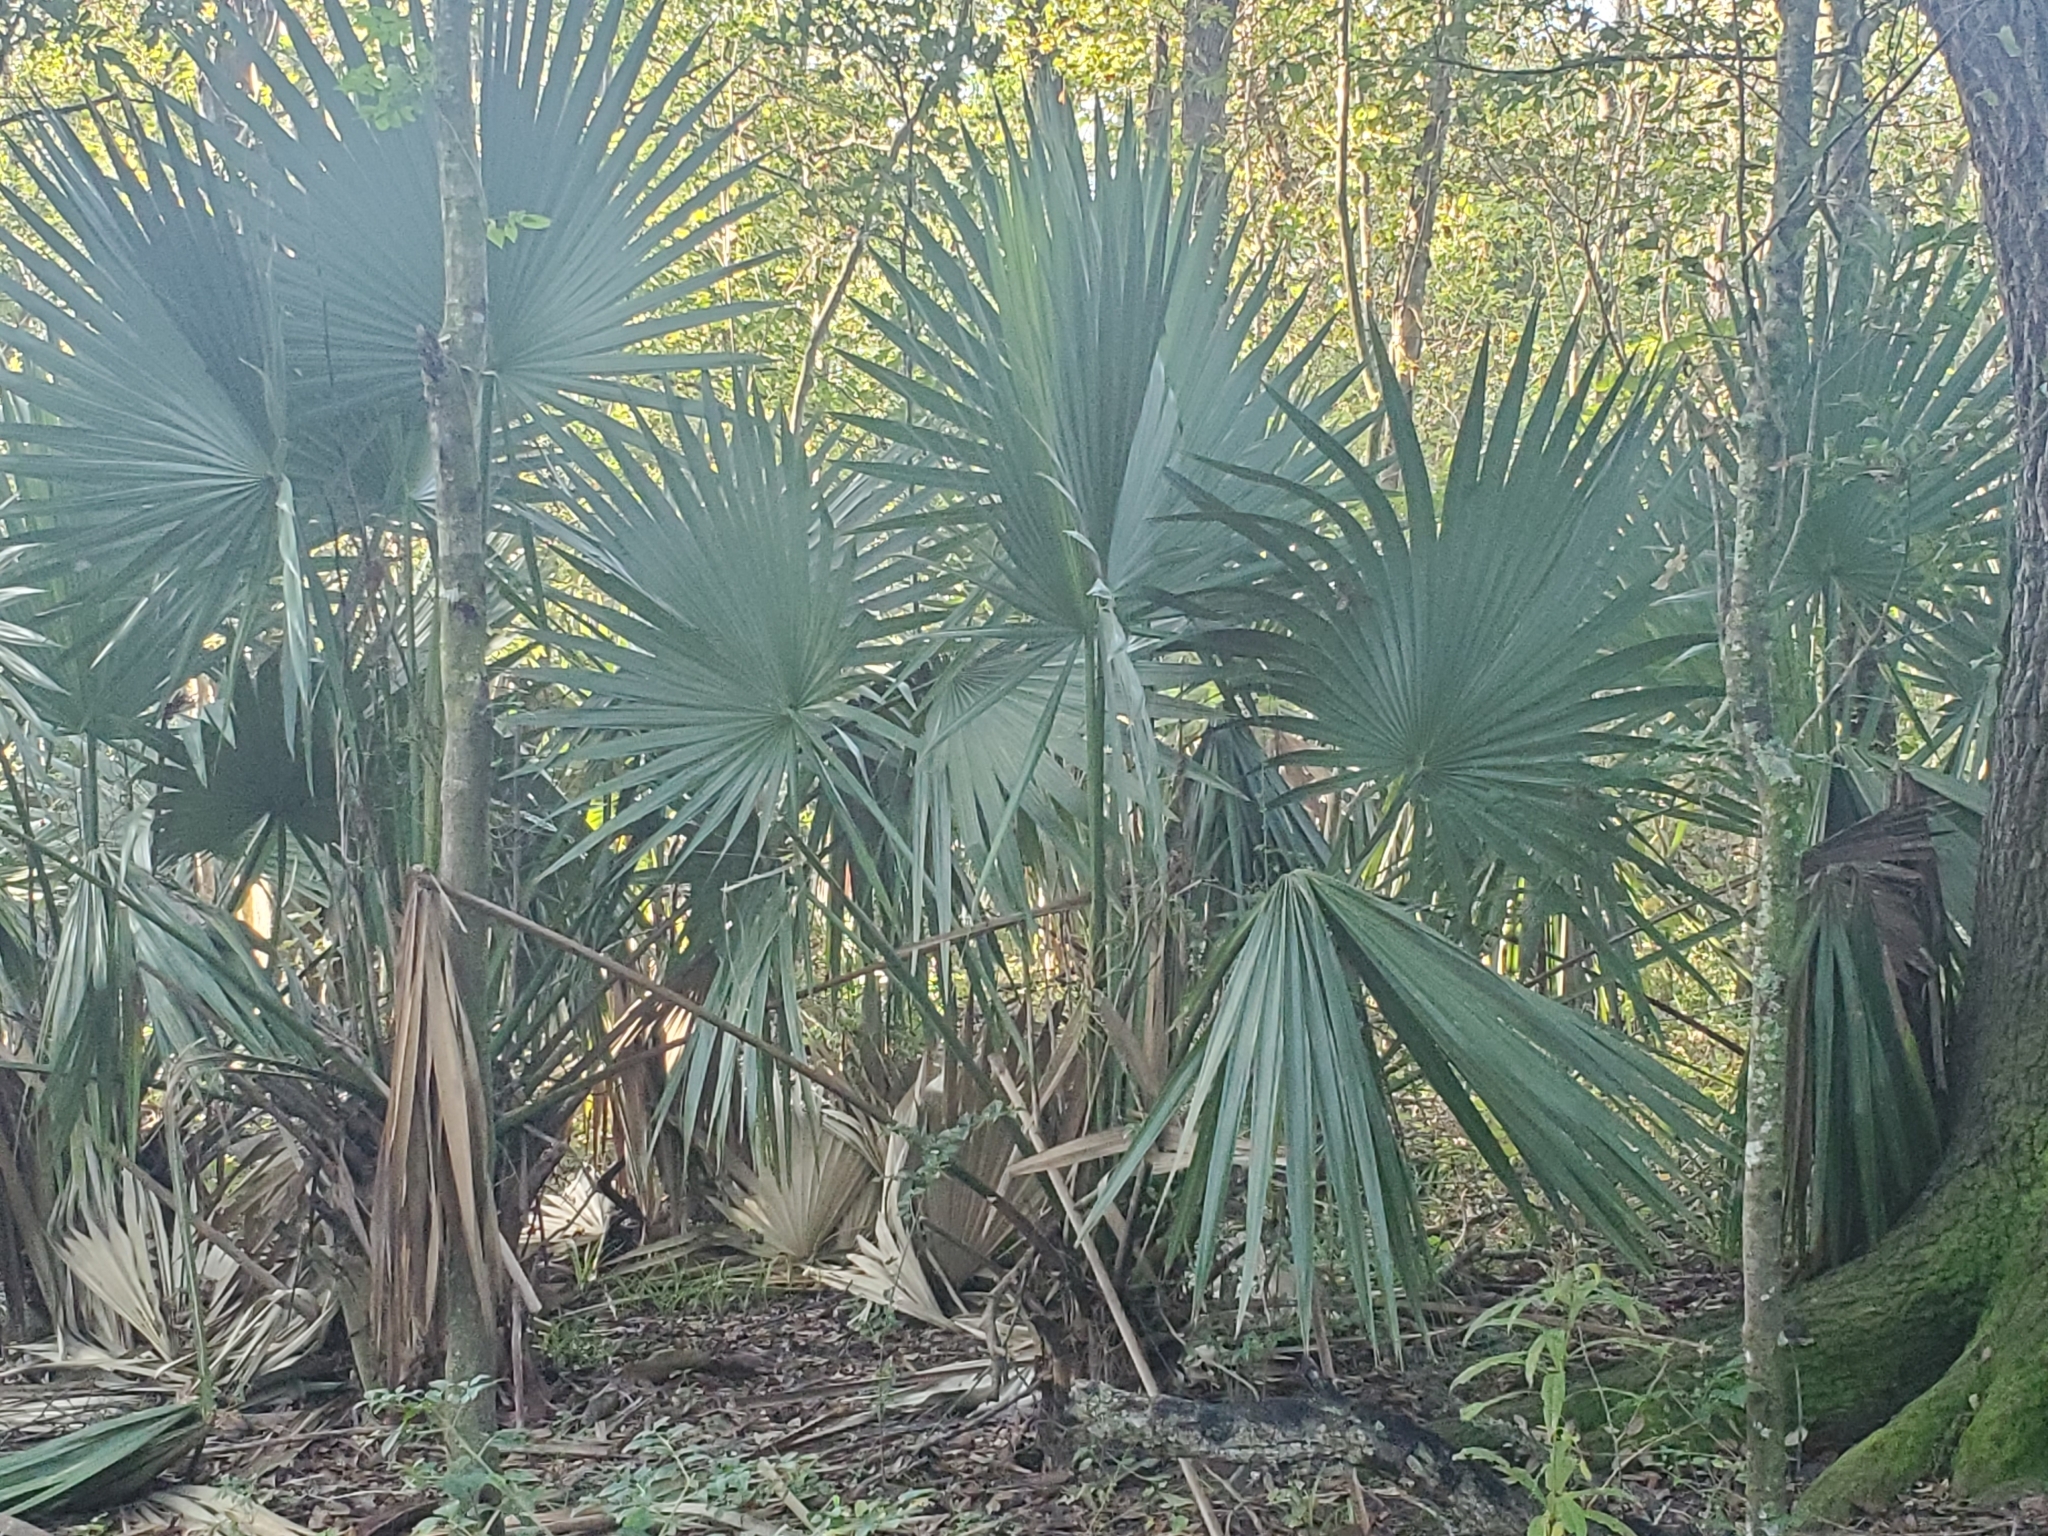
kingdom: Plantae
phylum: Tracheophyta
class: Liliopsida
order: Arecales
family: Arecaceae
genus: Sabal
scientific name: Sabal minor
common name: Dwarf palmetto
